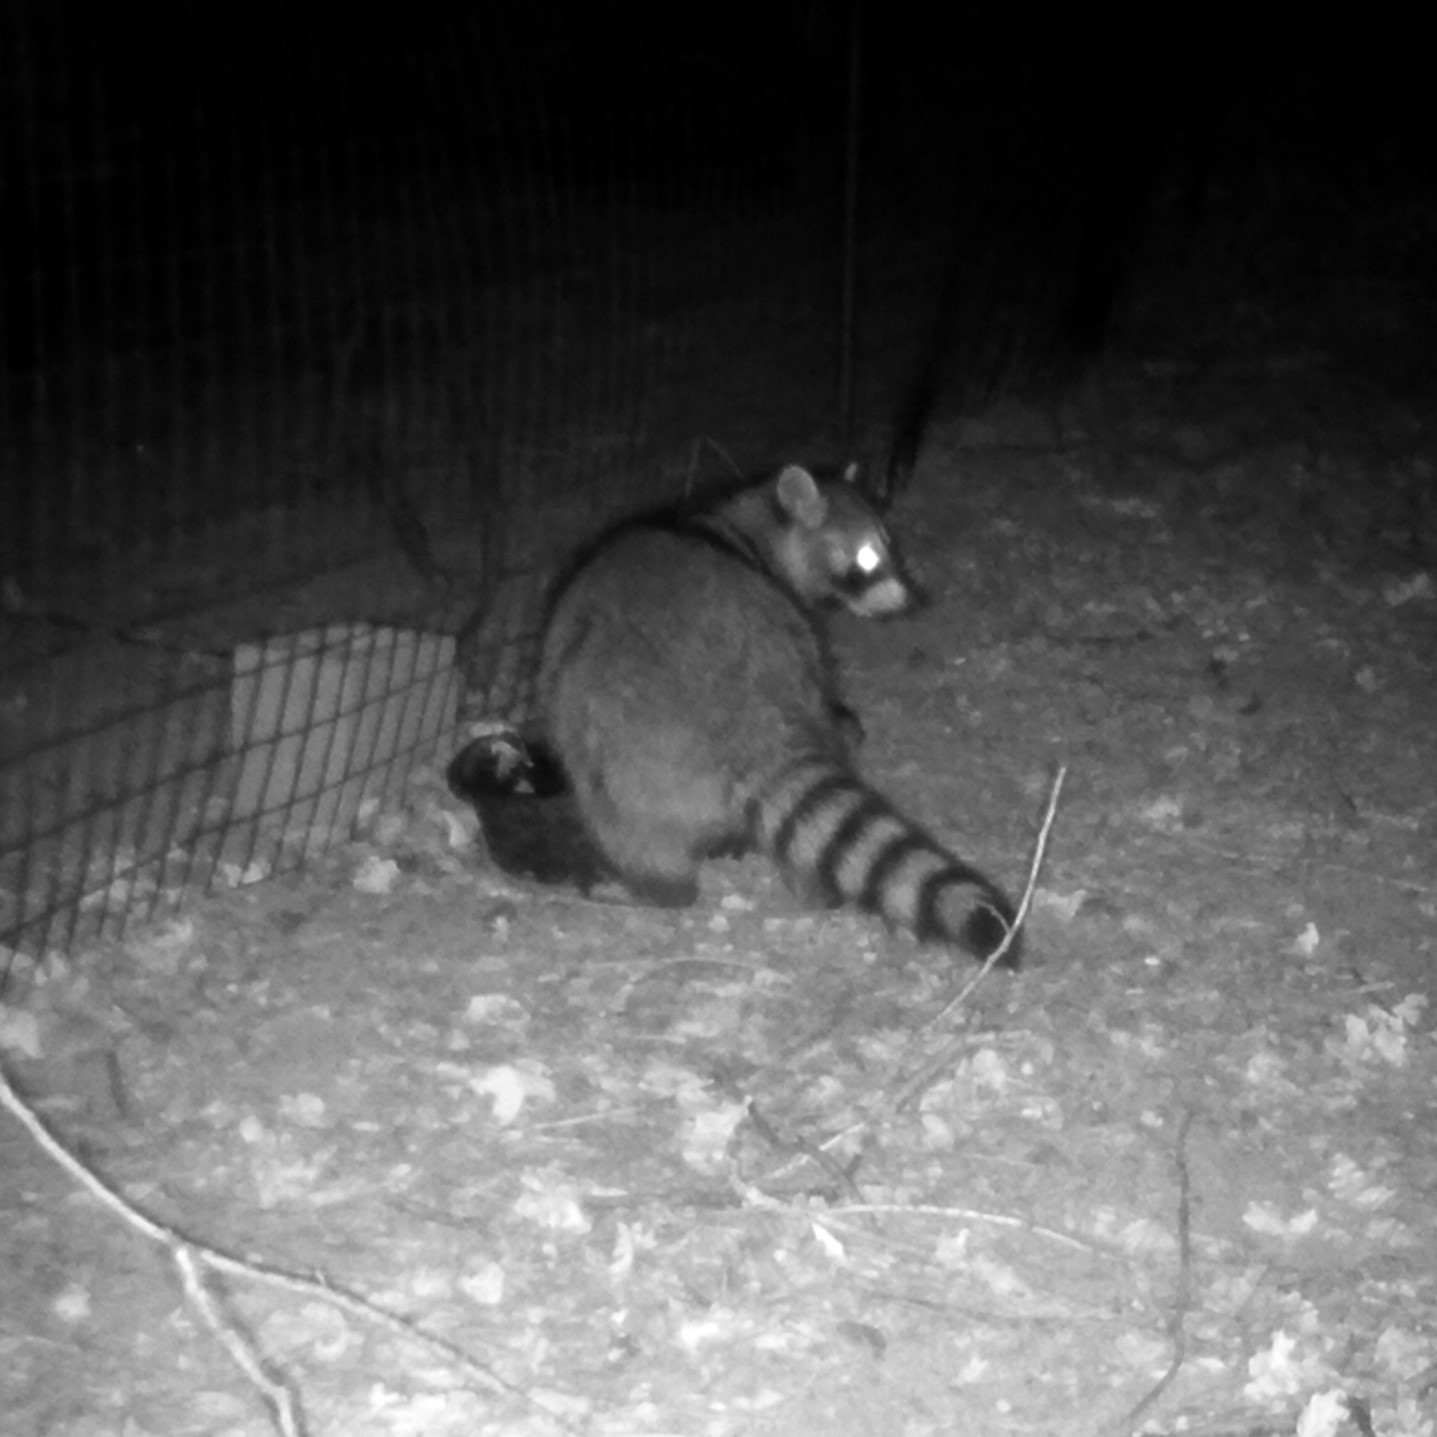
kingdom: Animalia
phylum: Chordata
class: Mammalia
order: Carnivora
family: Procyonidae
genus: Procyon
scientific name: Procyon lotor
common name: Raccoon
